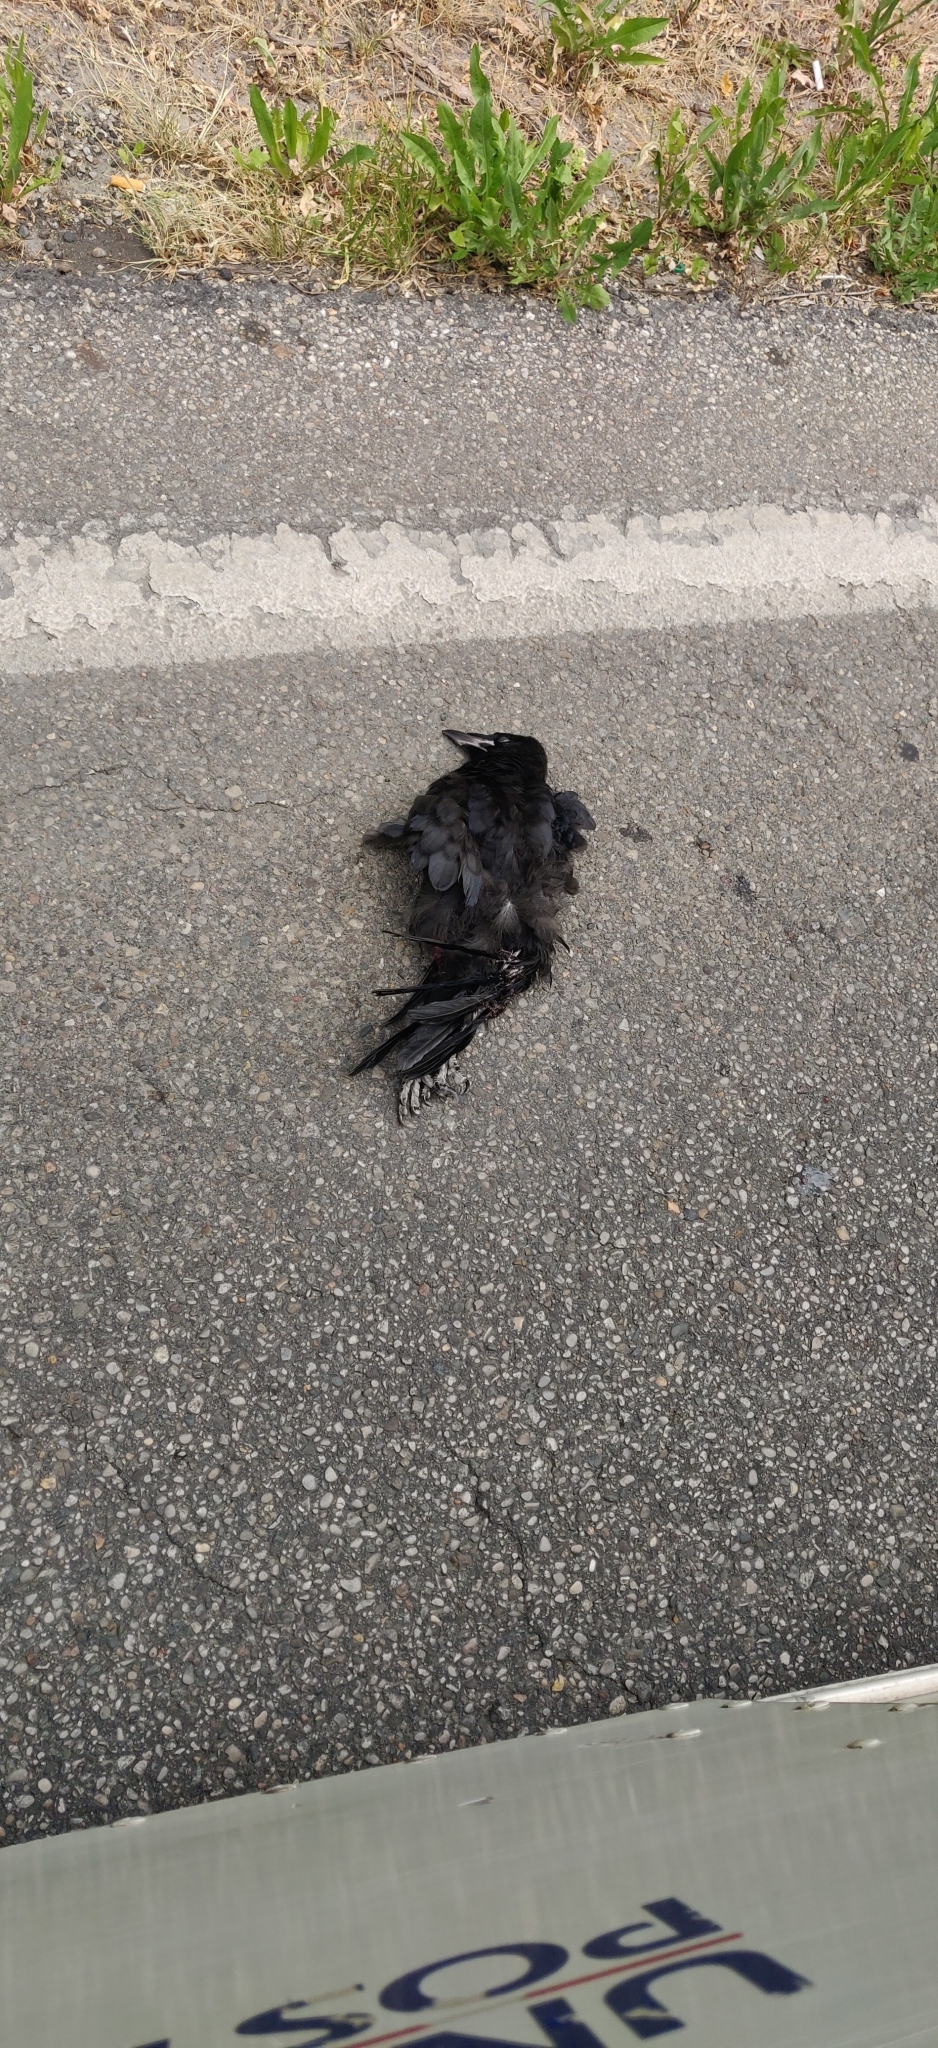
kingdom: Animalia
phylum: Chordata
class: Aves
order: Passeriformes
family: Corvidae
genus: Corvus
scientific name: Corvus brachyrhynchos
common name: American crow
